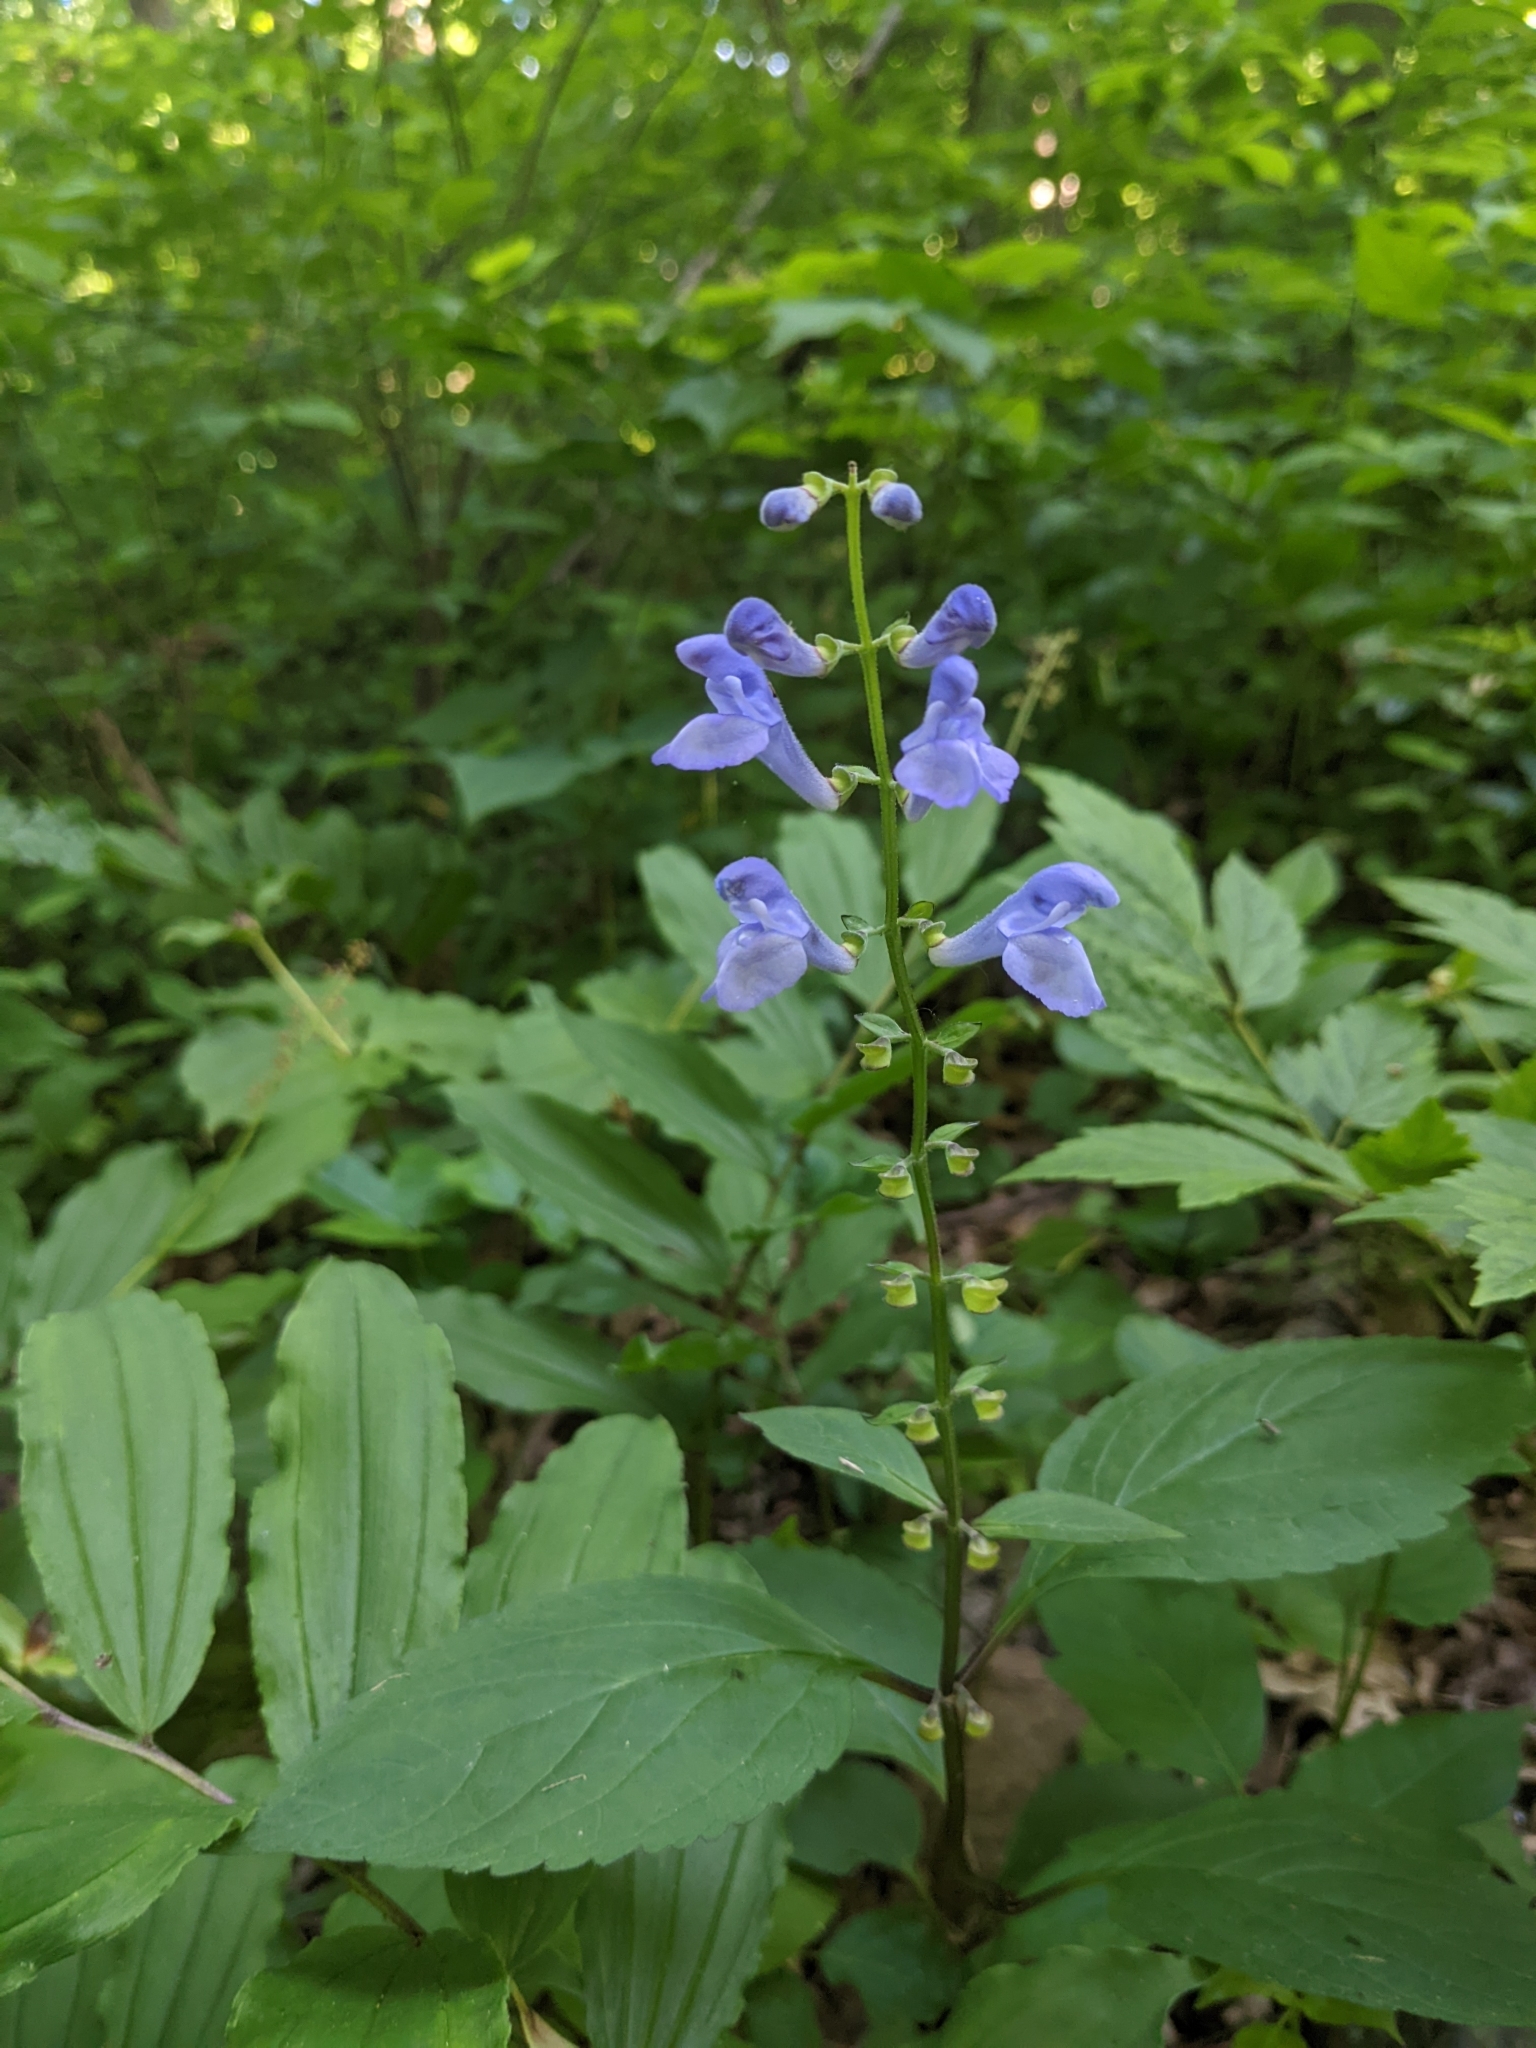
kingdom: Plantae
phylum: Tracheophyta
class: Magnoliopsida
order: Lamiales
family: Lamiaceae
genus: Scutellaria
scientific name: Scutellaria serrata
